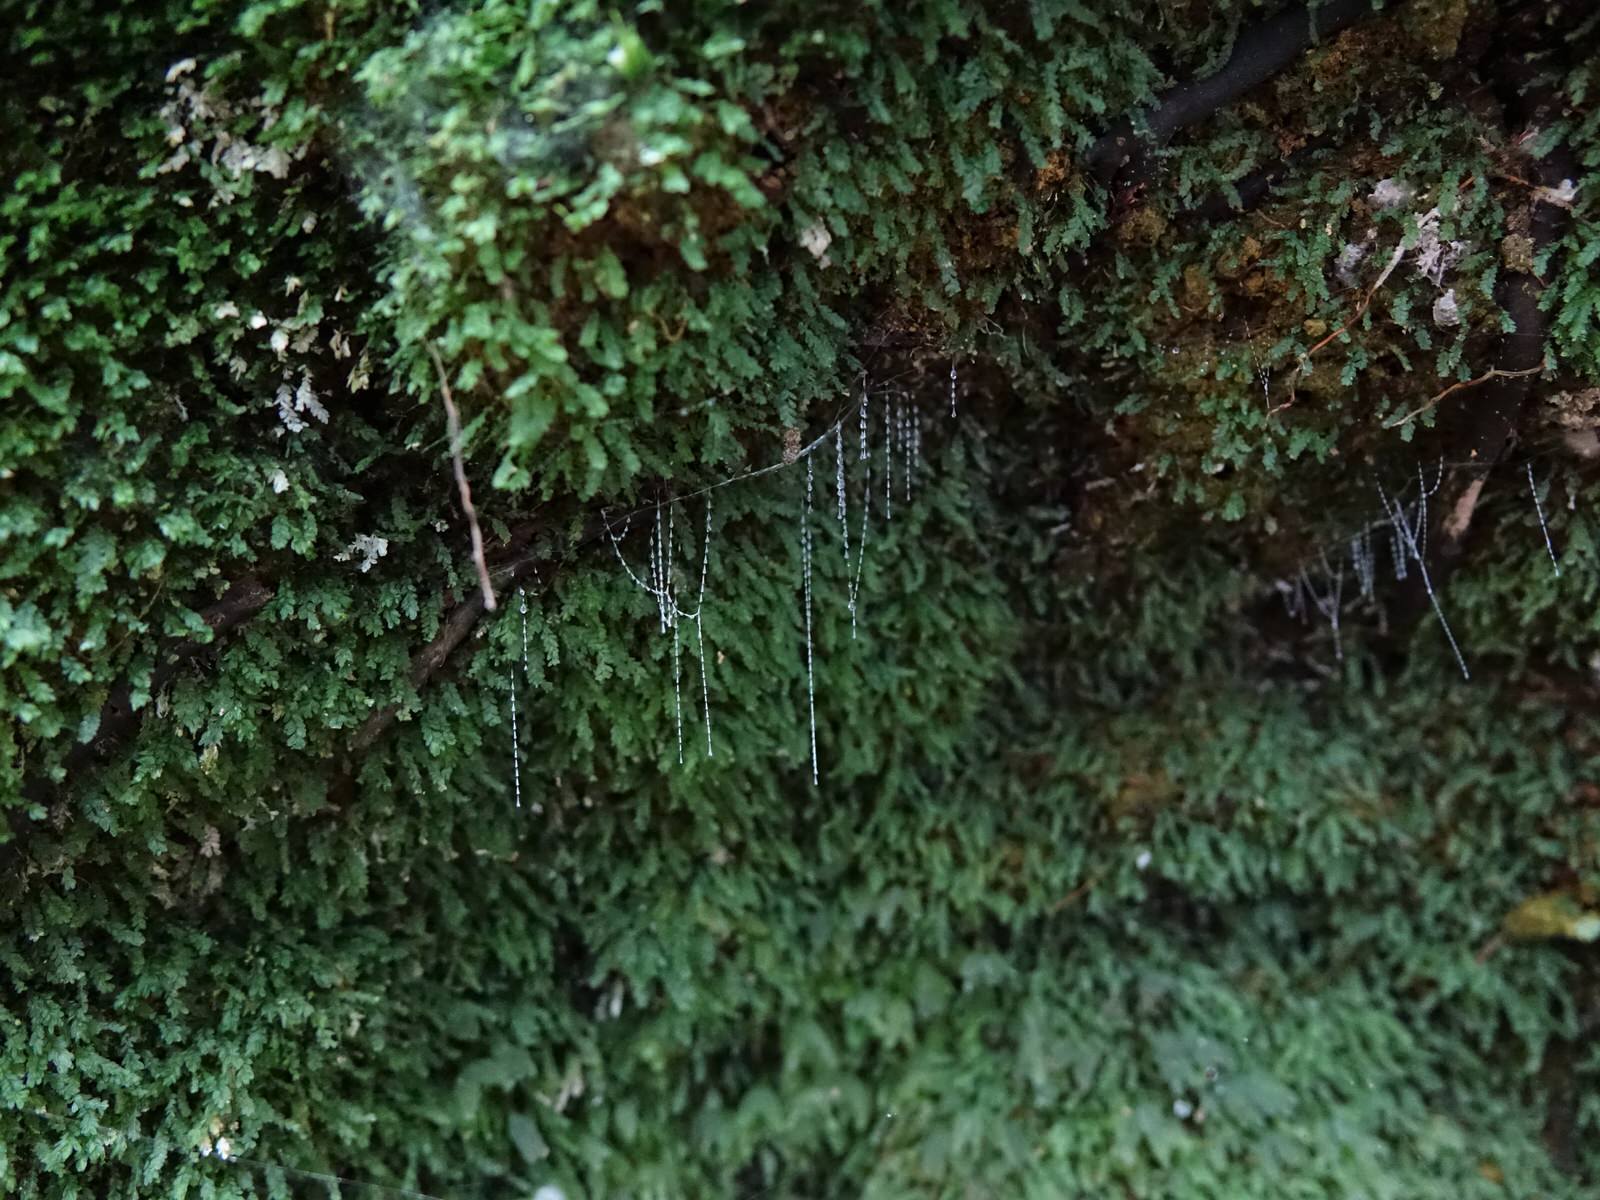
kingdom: Animalia
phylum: Arthropoda
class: Insecta
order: Diptera
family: Keroplatidae
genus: Arachnocampa
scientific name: Arachnocampa luminosa
